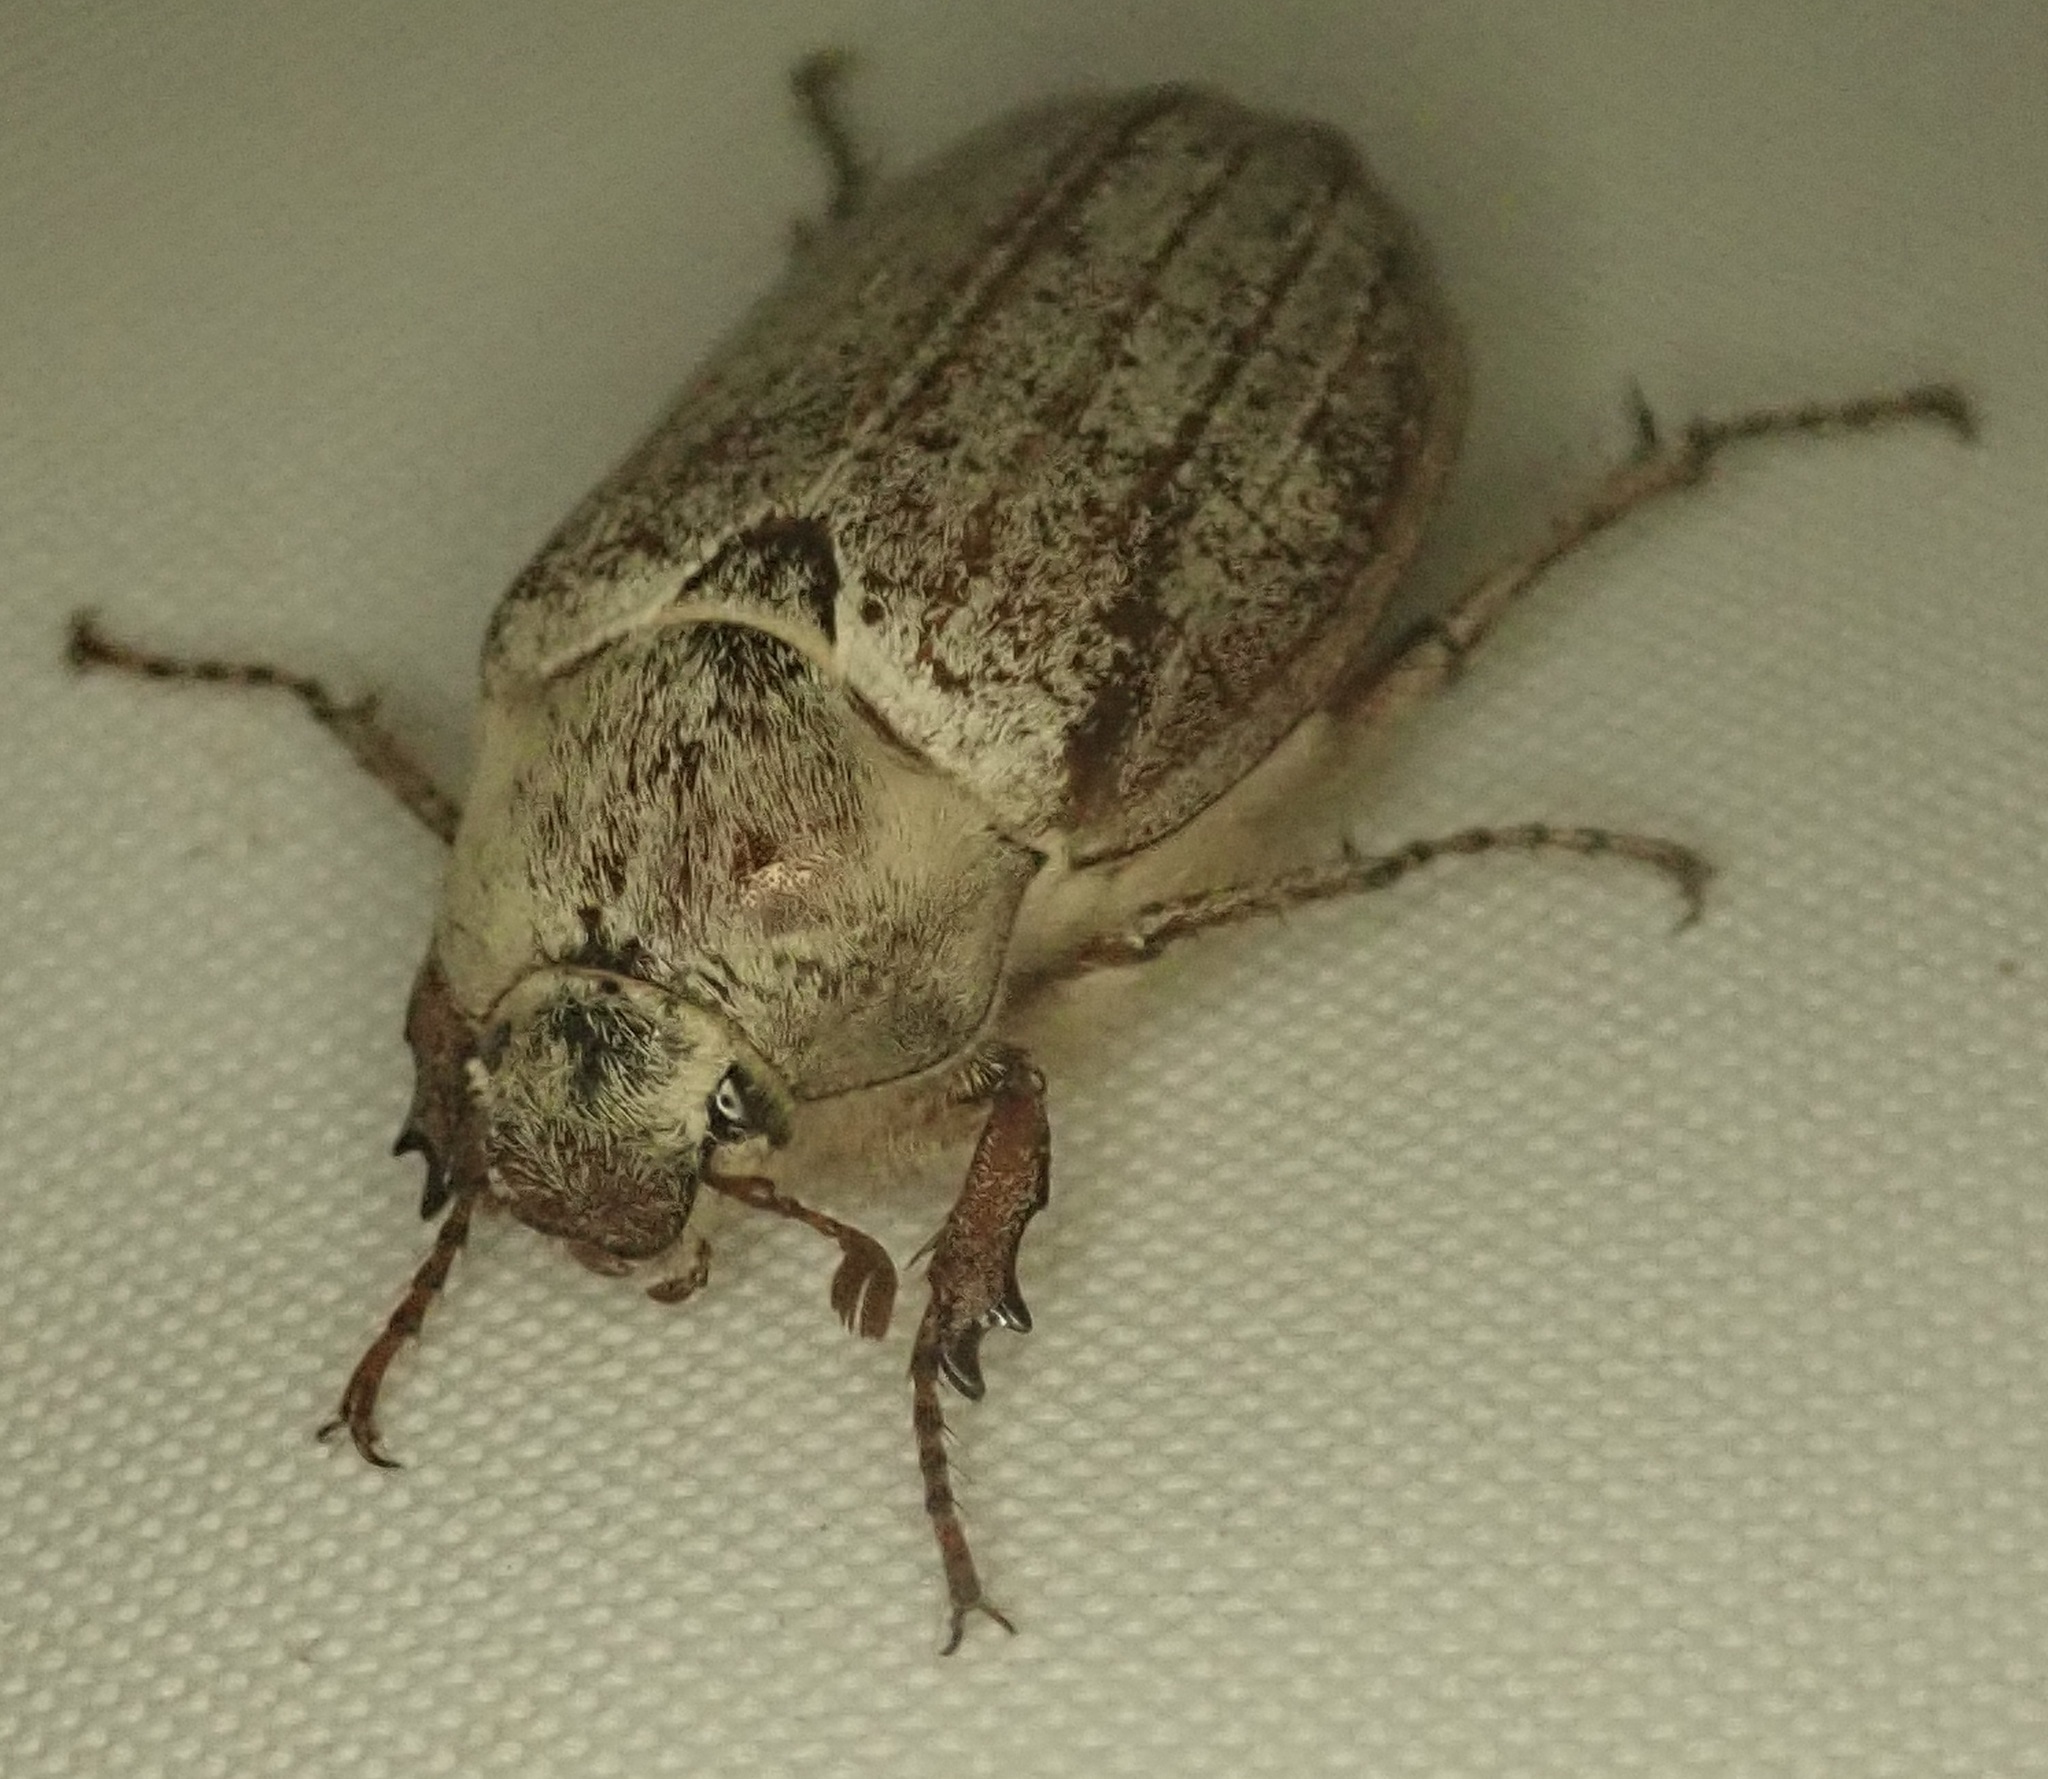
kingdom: Animalia
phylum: Arthropoda
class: Insecta
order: Coleoptera
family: Scarabaeidae
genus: Melolontha
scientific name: Melolontha melolontha
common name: Cockchafer maybeetle
